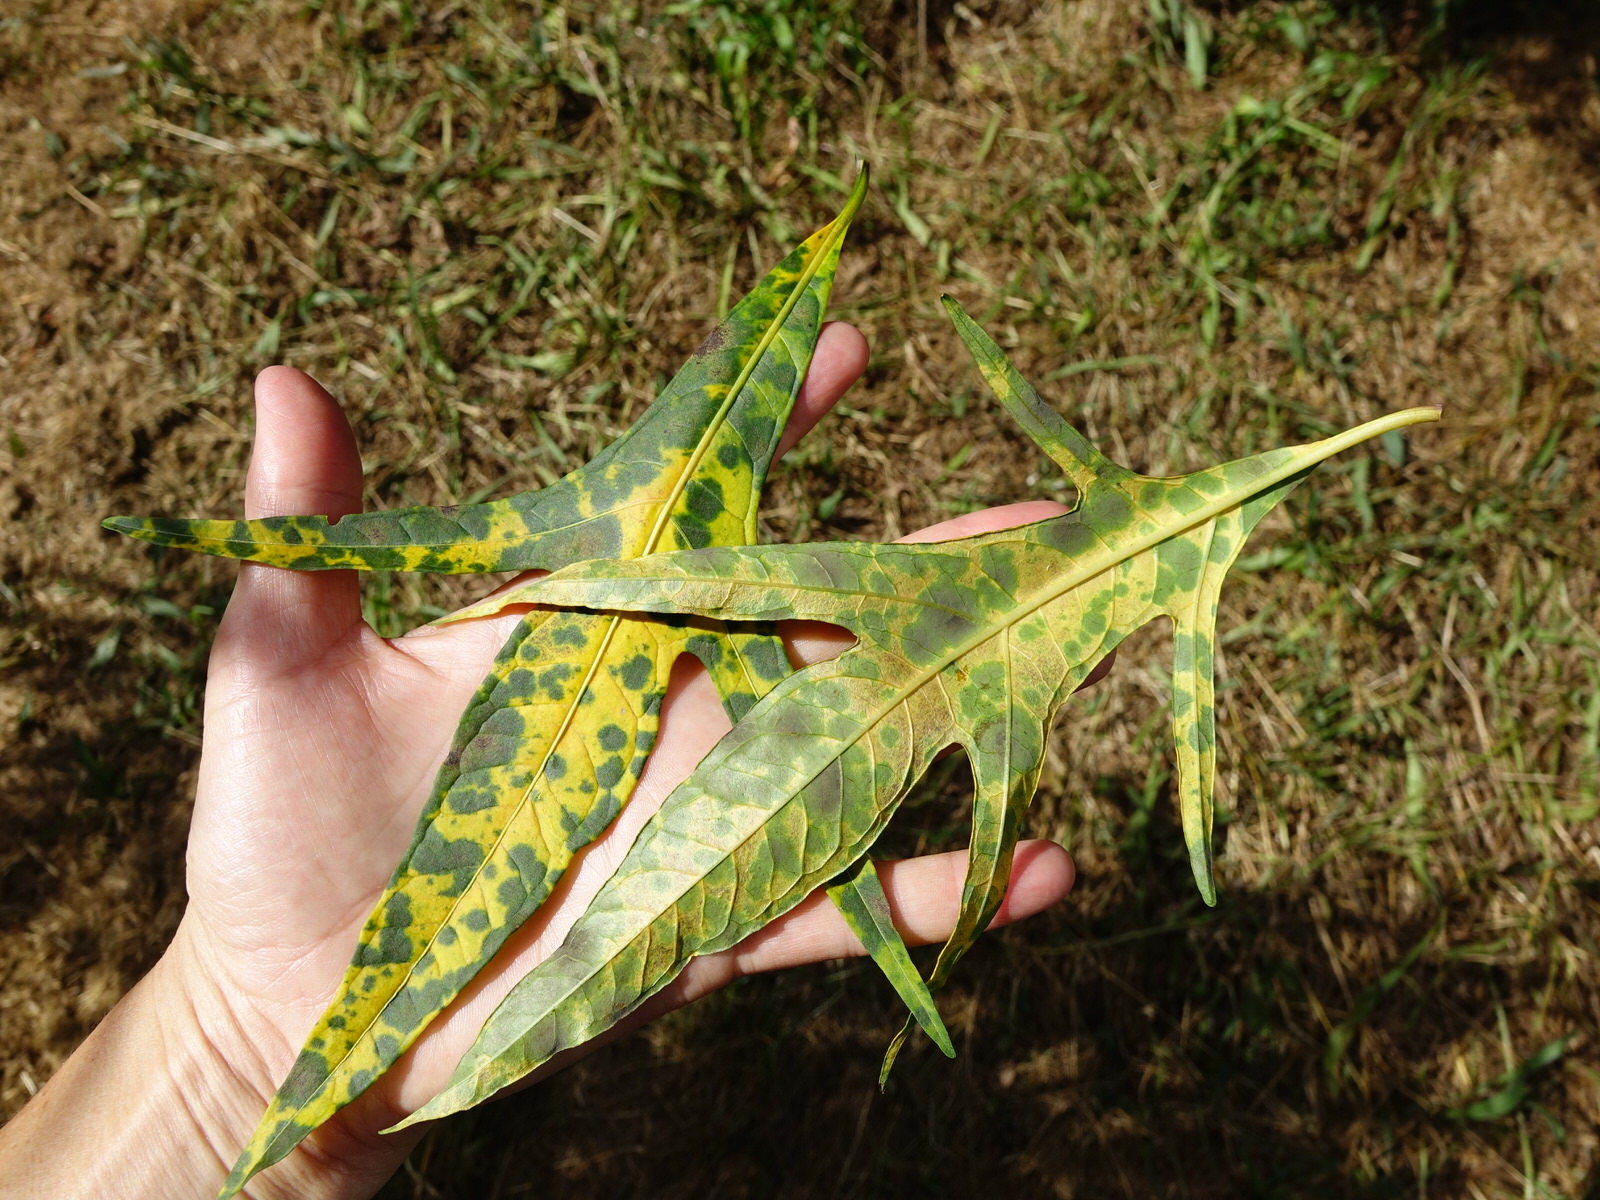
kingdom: Plantae
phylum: Tracheophyta
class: Magnoliopsida
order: Solanales
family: Solanaceae
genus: Solanum
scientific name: Solanum laciniatum
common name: Kangaroo-apple
